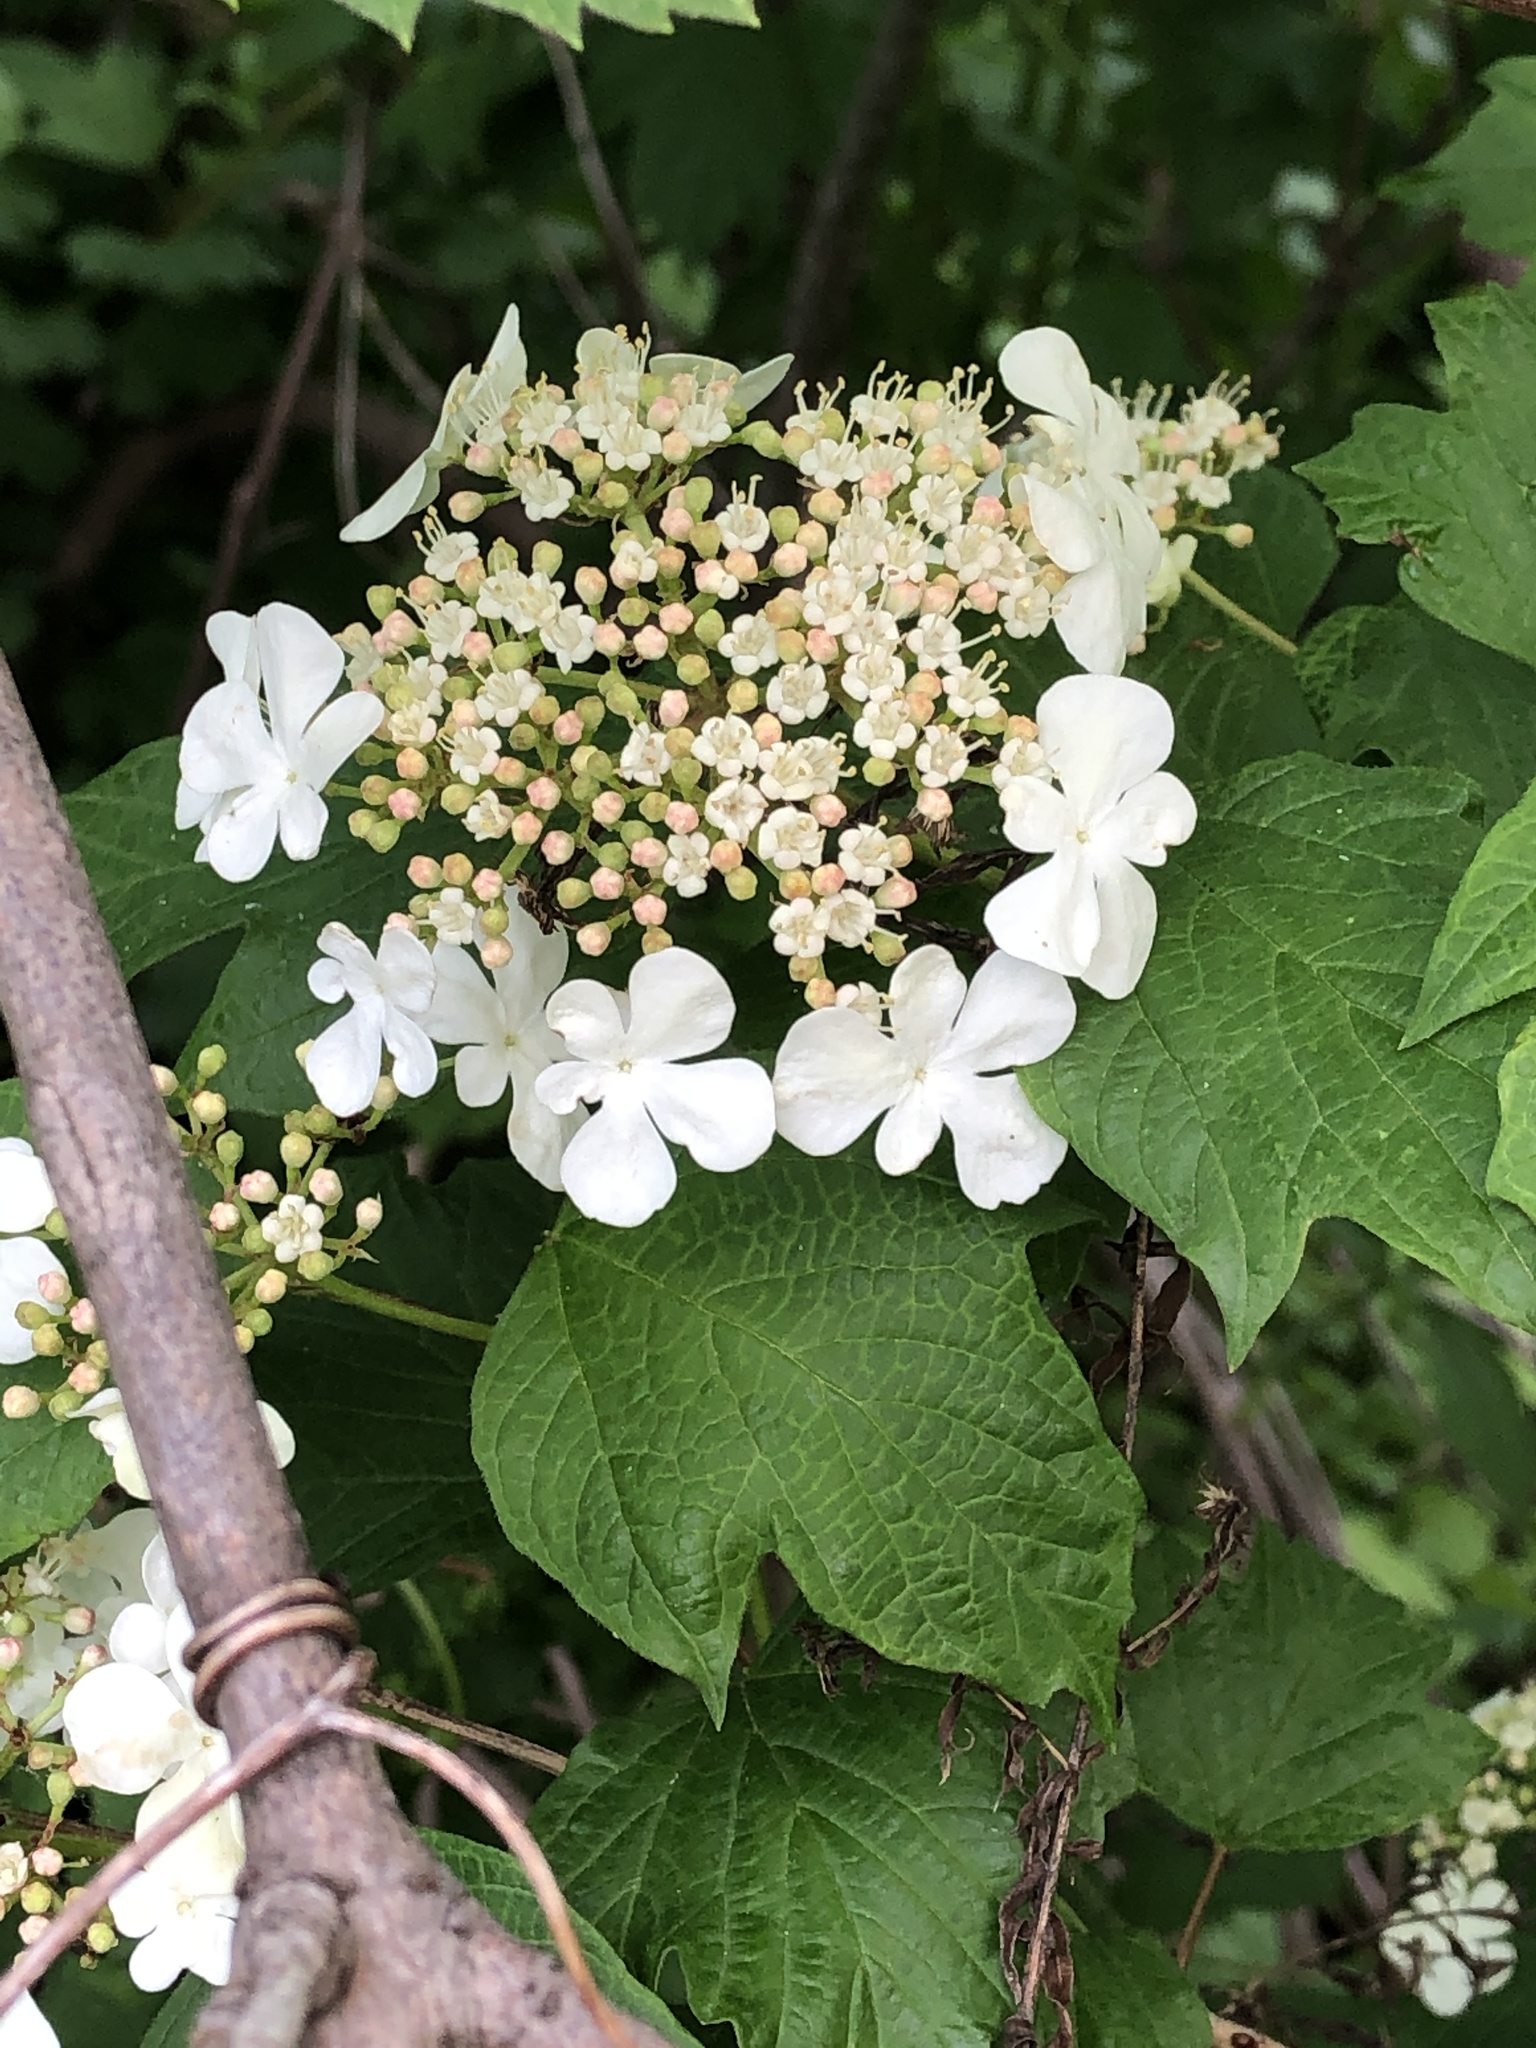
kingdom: Plantae
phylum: Tracheophyta
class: Magnoliopsida
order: Dipsacales
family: Viburnaceae
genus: Viburnum
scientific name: Viburnum opulus
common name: Guelder-rose
